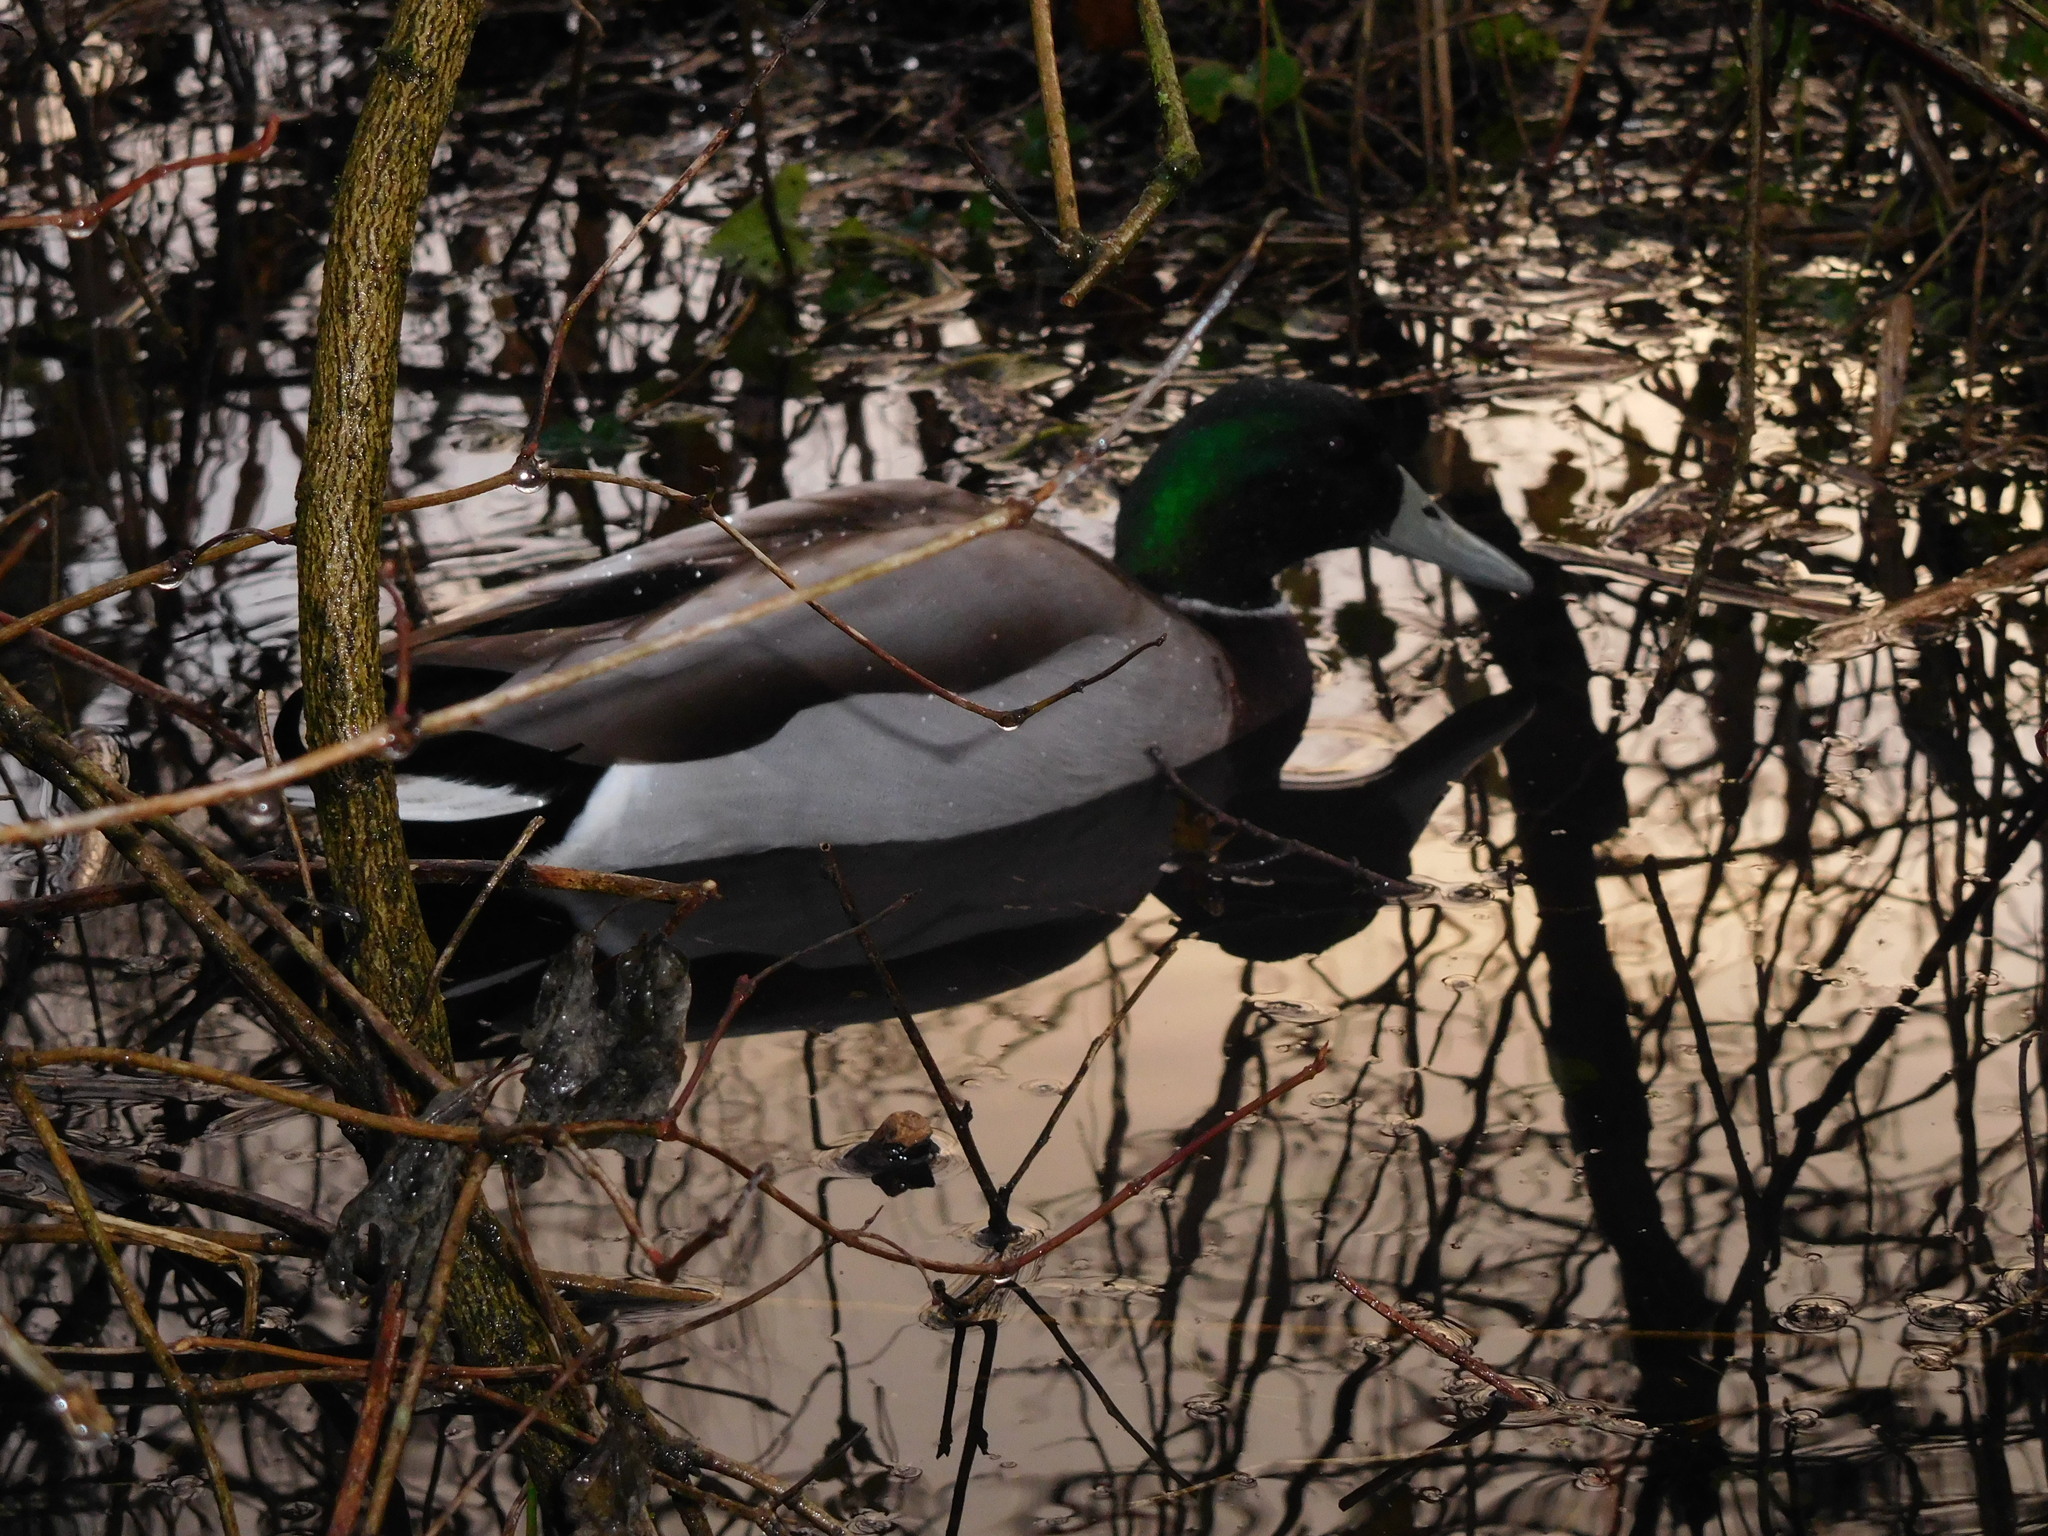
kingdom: Animalia
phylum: Chordata
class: Aves
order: Anseriformes
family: Anatidae
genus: Anas
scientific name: Anas platyrhynchos
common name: Mallard
